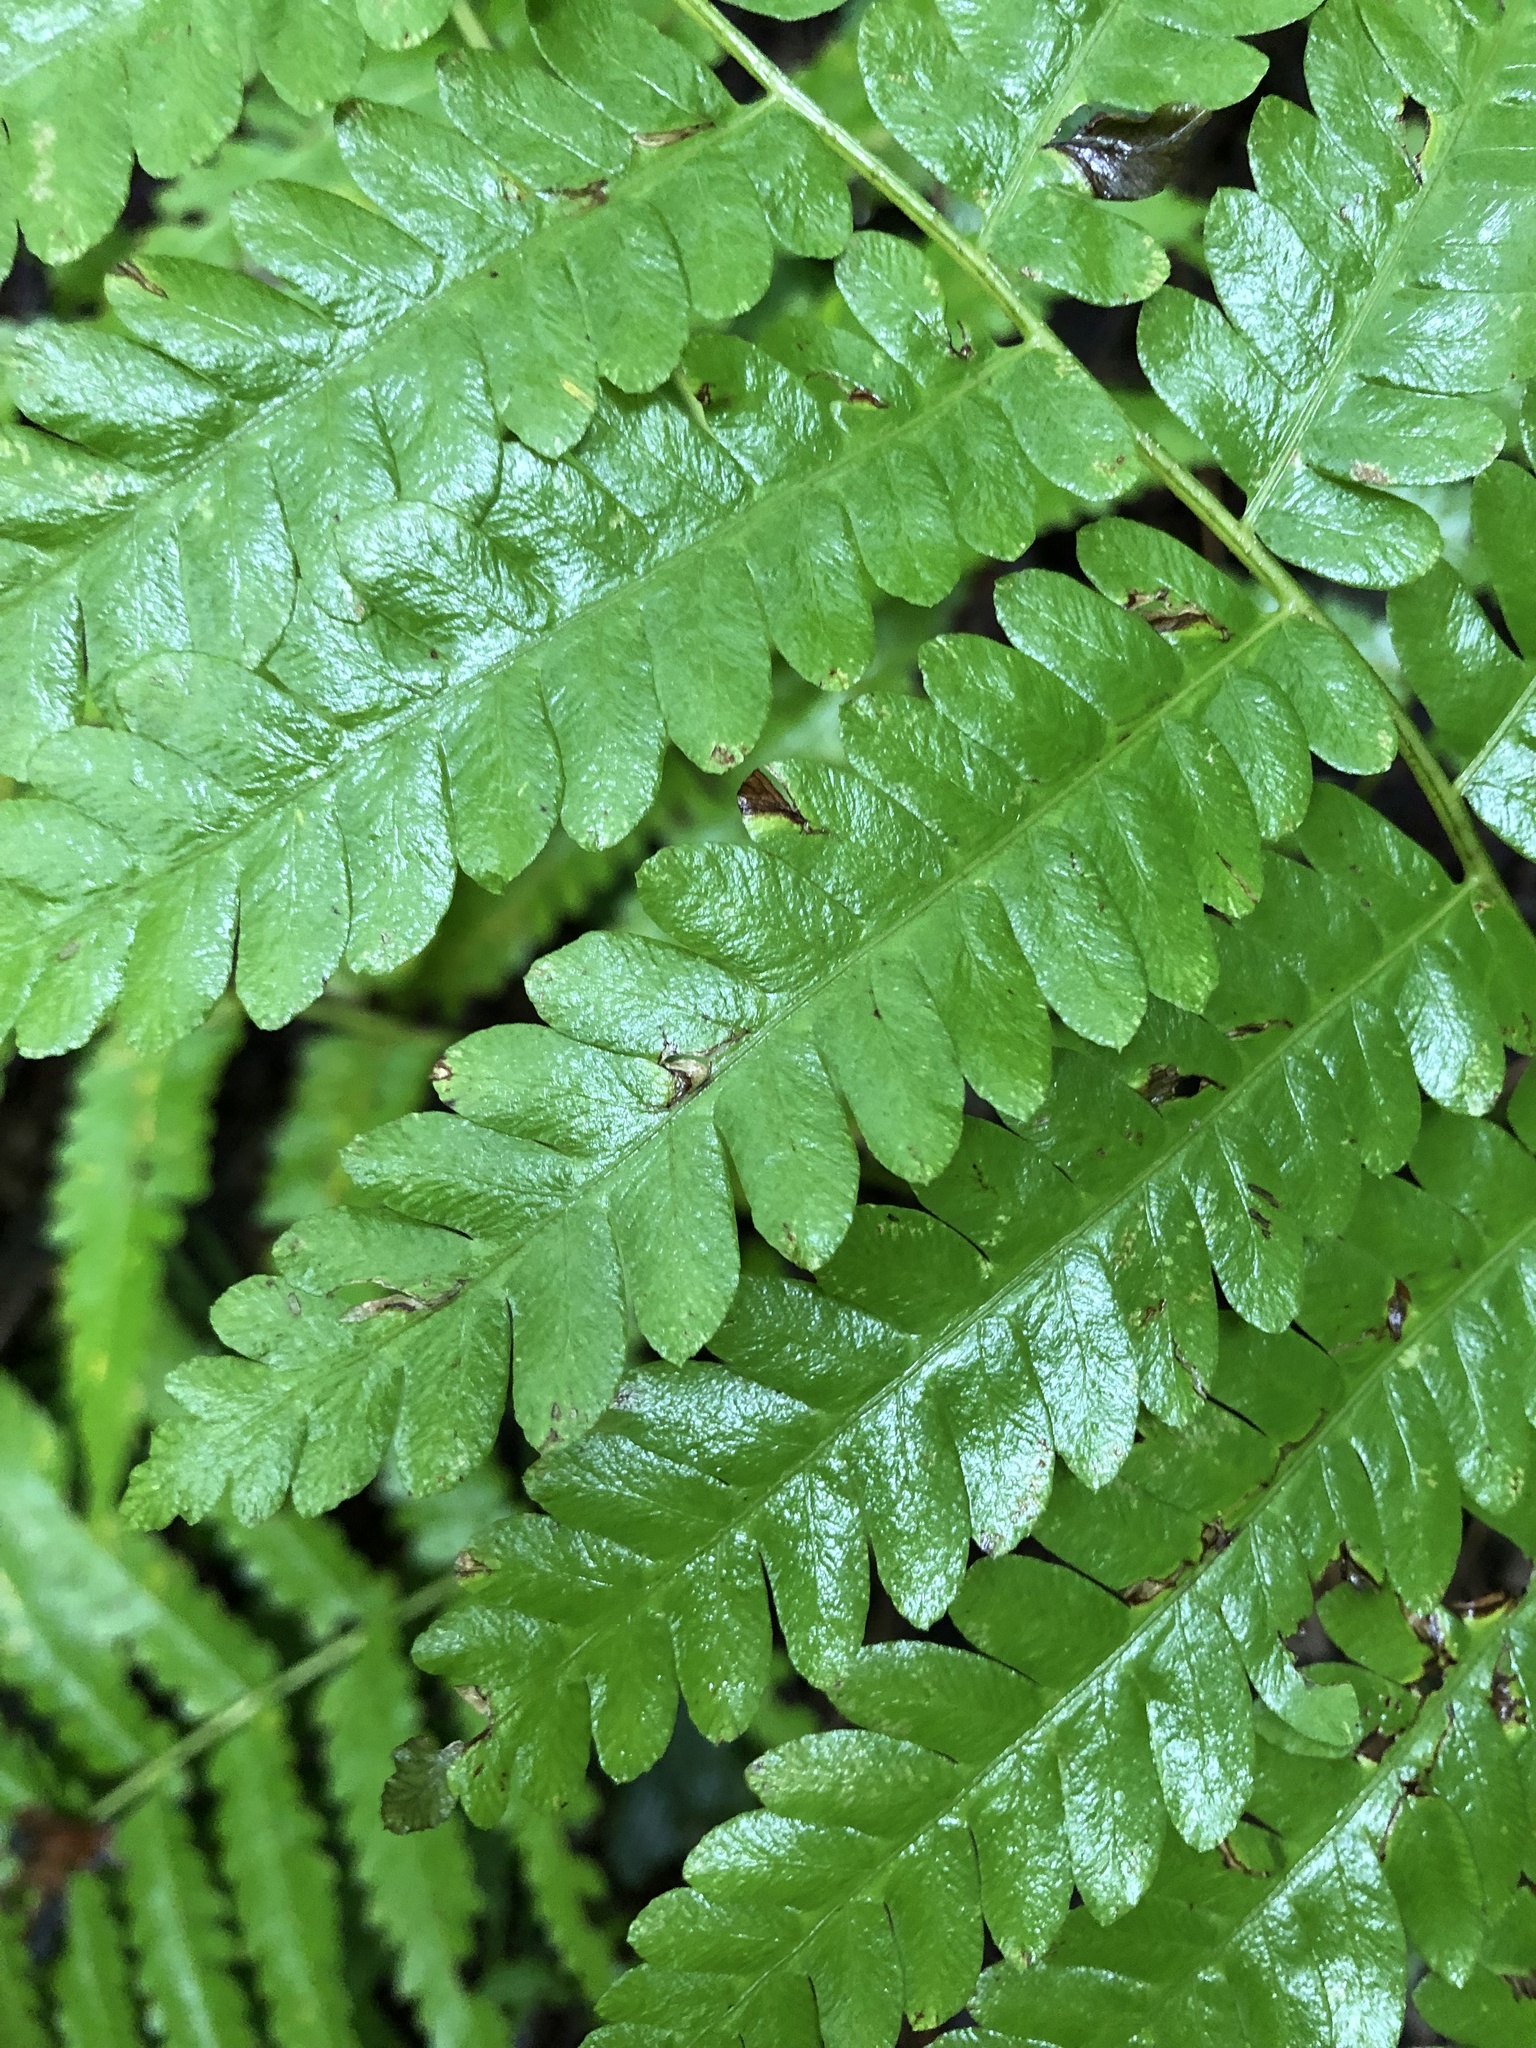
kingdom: Plantae
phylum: Tracheophyta
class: Polypodiopsida
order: Osmundales
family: Osmundaceae
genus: Claytosmunda
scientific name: Claytosmunda claytoniana
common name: Clayton's fern
